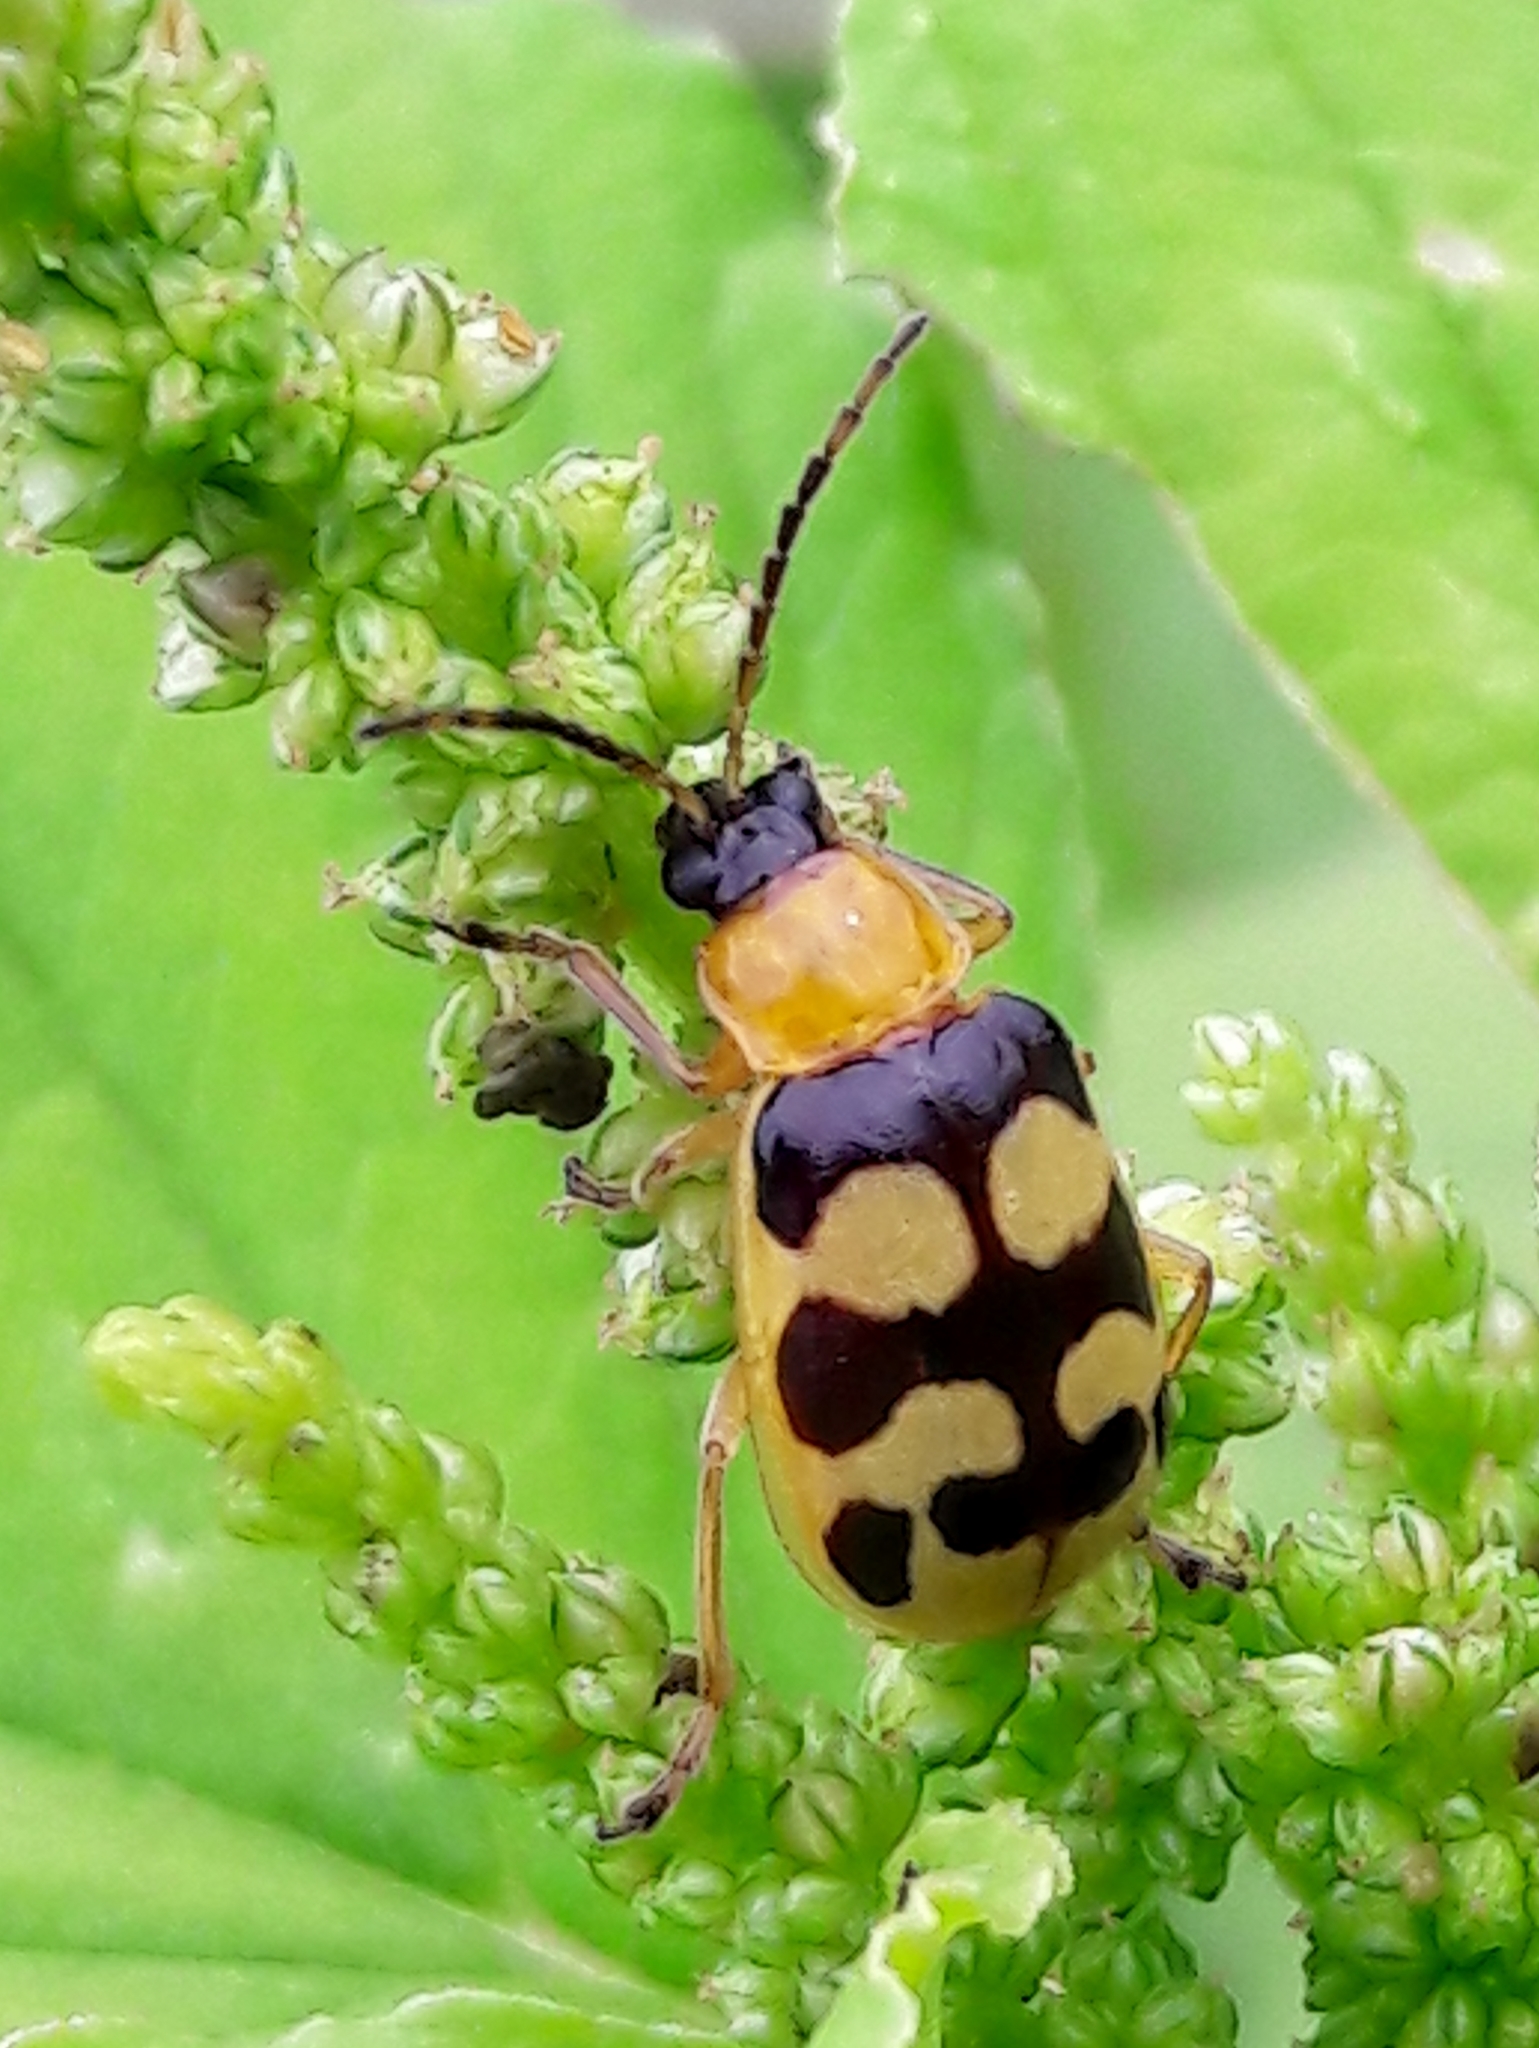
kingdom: Animalia
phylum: Arthropoda
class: Insecta
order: Coleoptera
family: Chrysomelidae
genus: Basiprionota
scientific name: Basiprionota sinuata
